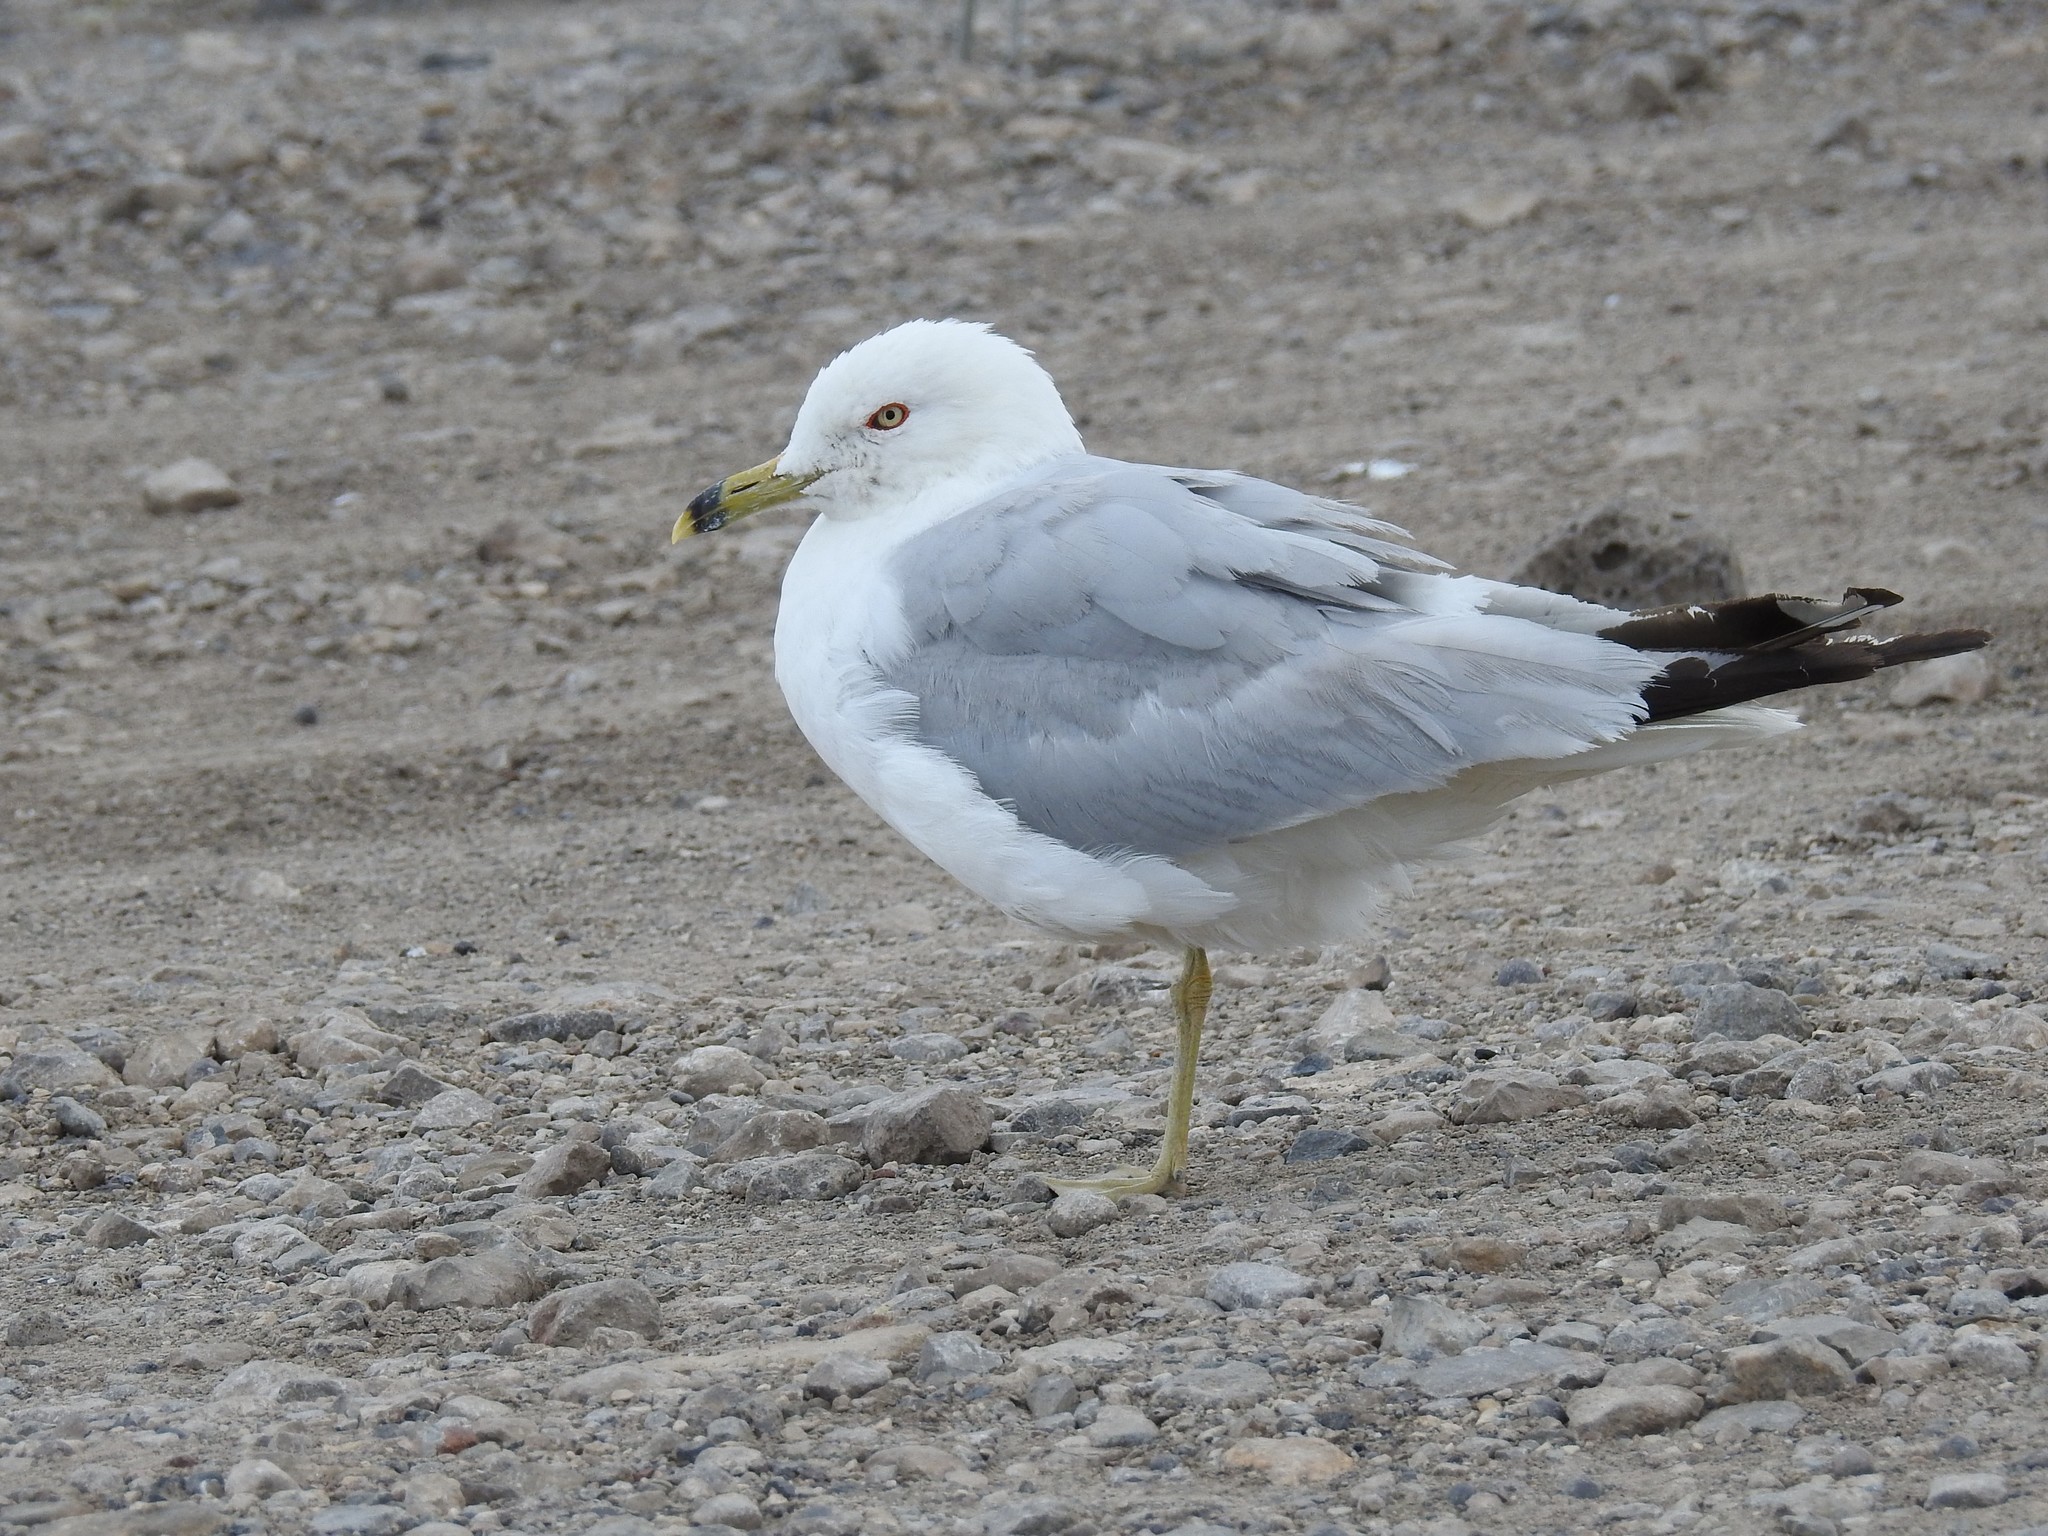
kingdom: Animalia
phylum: Chordata
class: Aves
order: Charadriiformes
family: Laridae
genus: Larus
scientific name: Larus delawarensis
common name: Ring-billed gull
